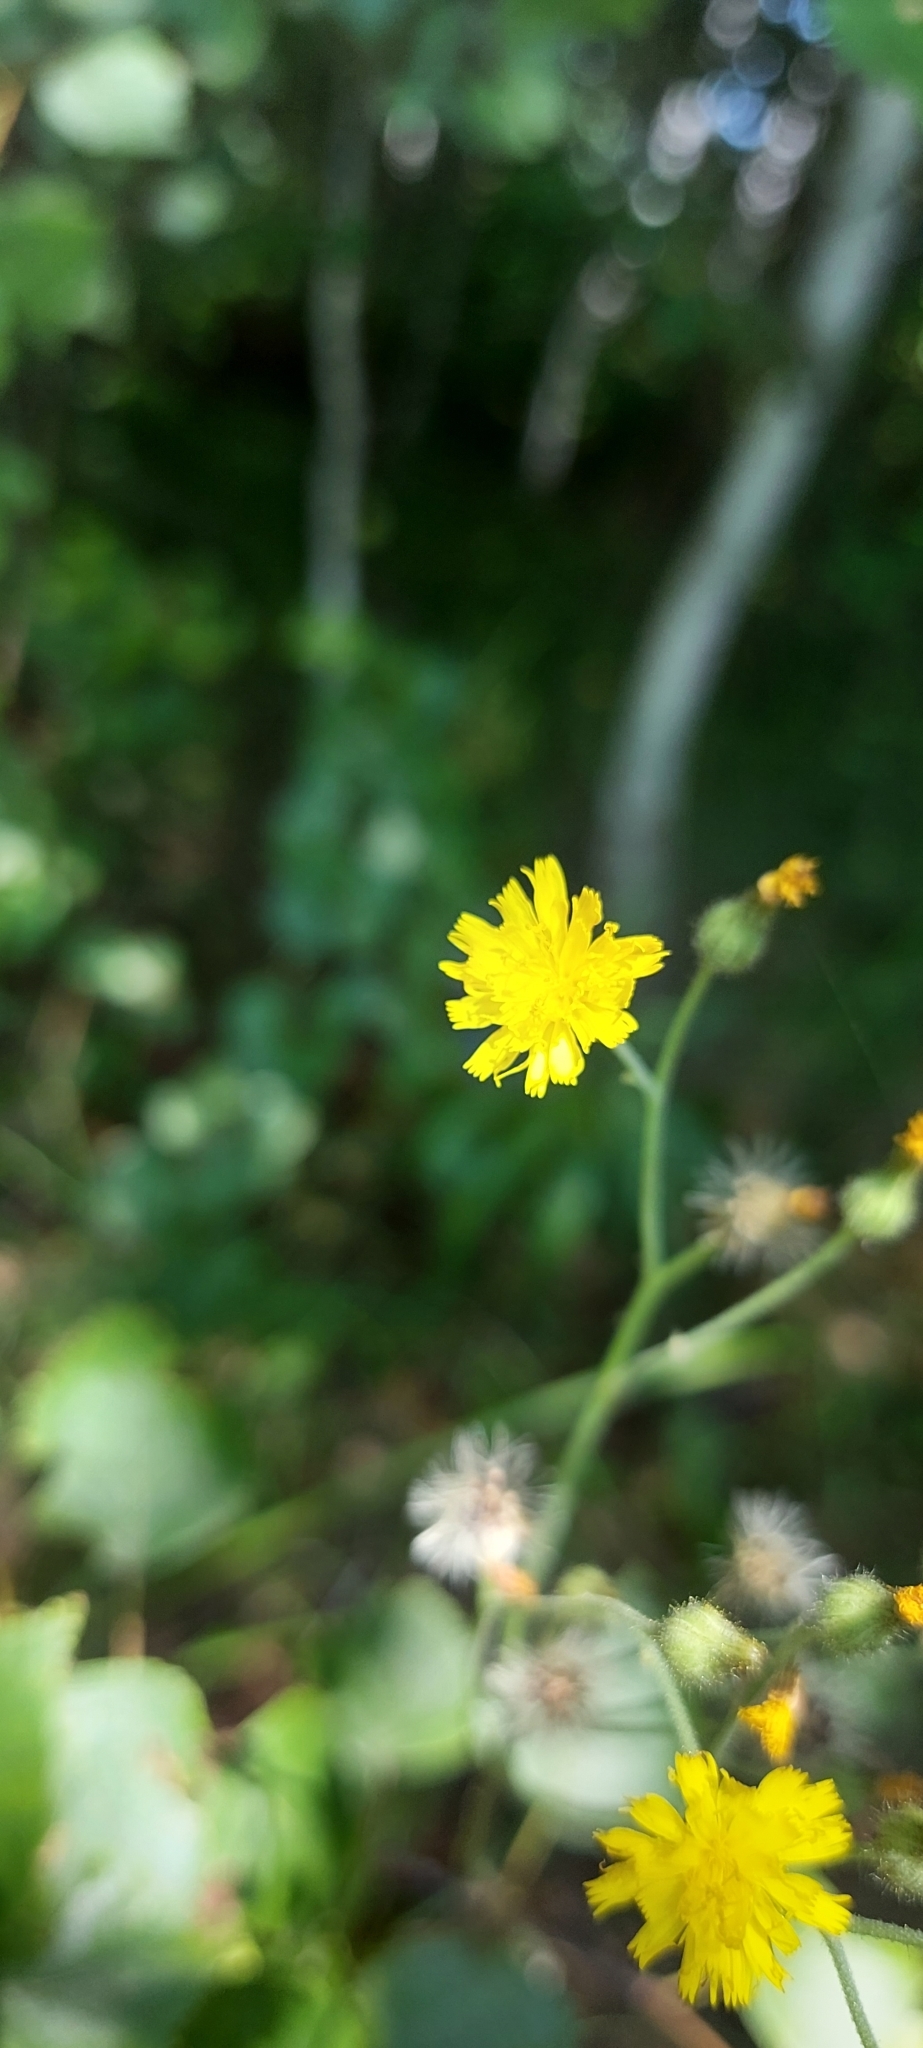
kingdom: Plantae
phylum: Tracheophyta
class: Magnoliopsida
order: Asterales
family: Asteraceae
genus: Pilosella
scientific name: Pilosella
